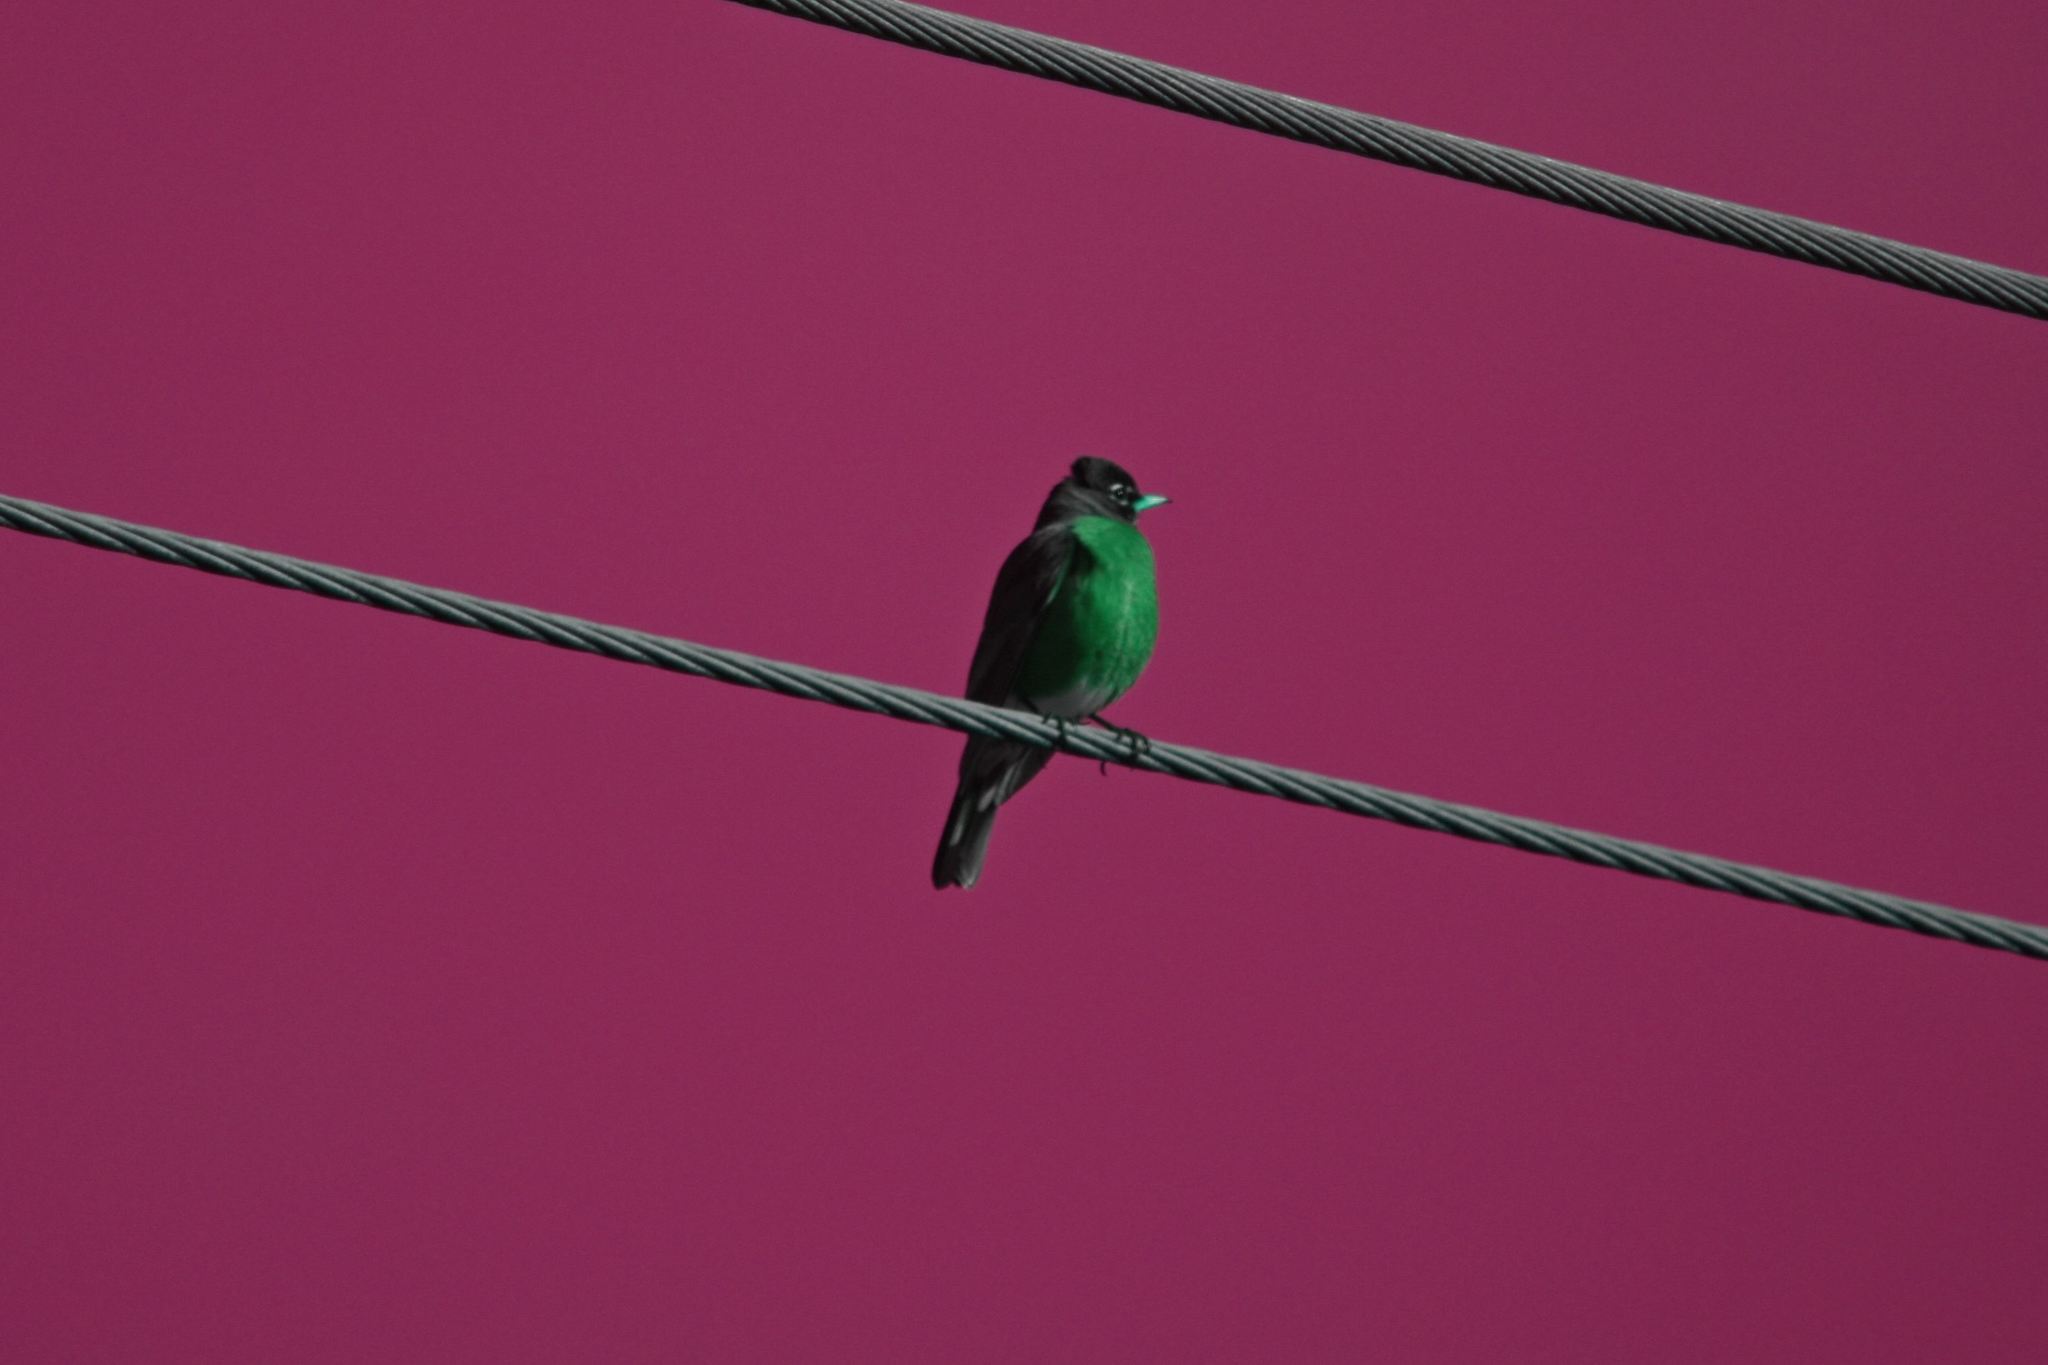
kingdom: Animalia
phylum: Chordata
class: Aves
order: Passeriformes
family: Turdidae
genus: Turdus
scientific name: Turdus migratorius
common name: American robin
